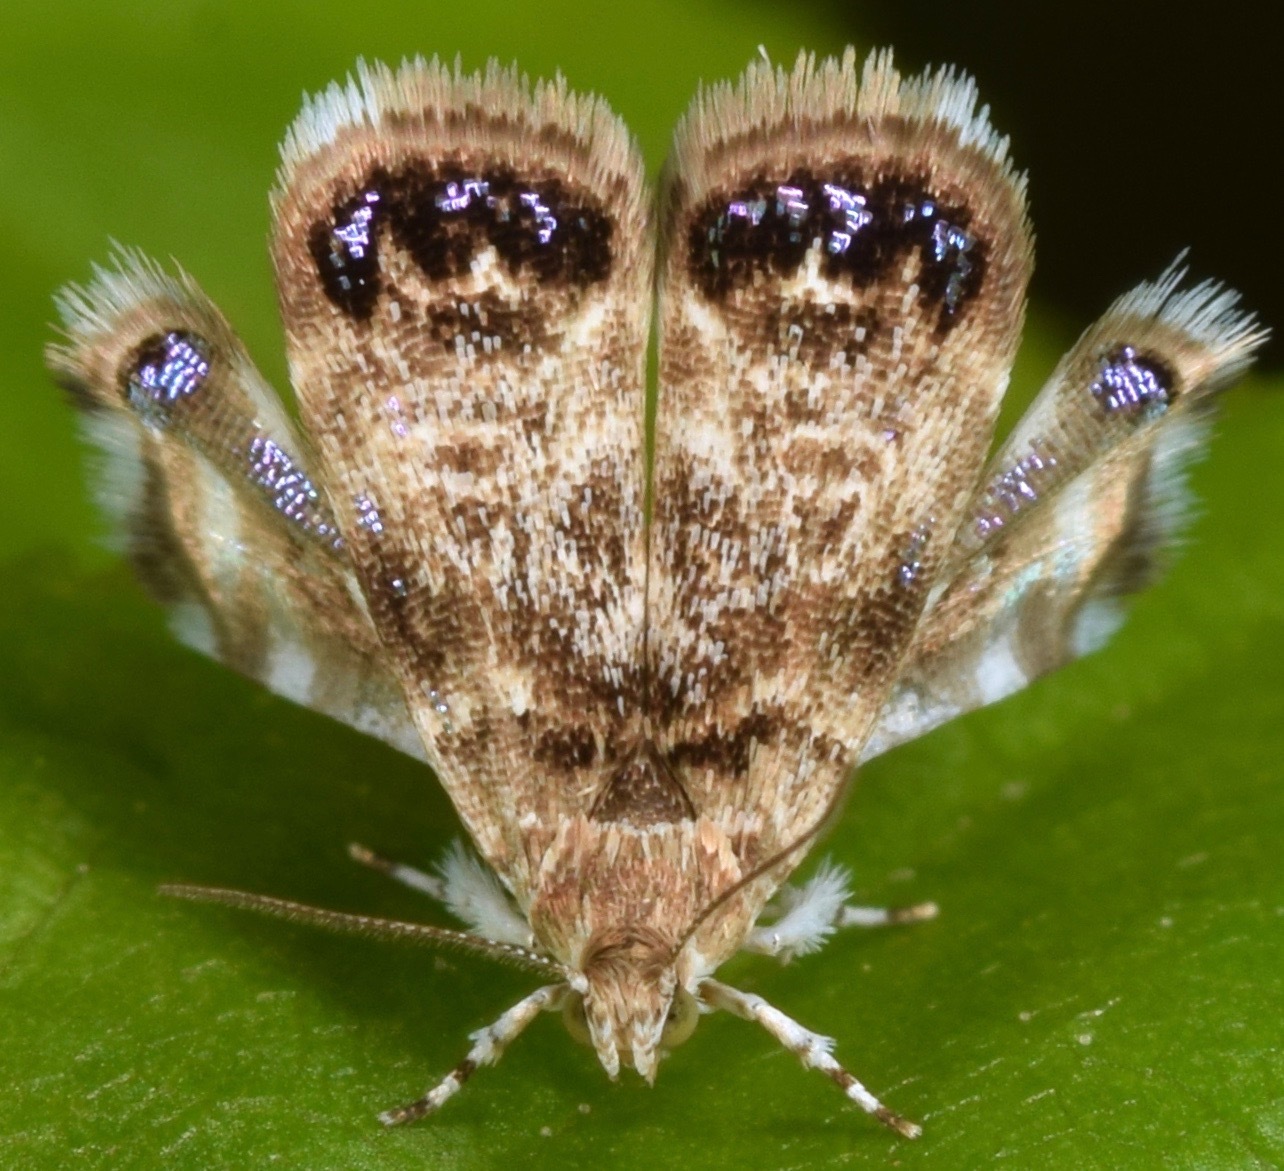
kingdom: Animalia
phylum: Arthropoda
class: Insecta
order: Lepidoptera
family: Choreutidae
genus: Brenthia
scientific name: Brenthia pavonacella
